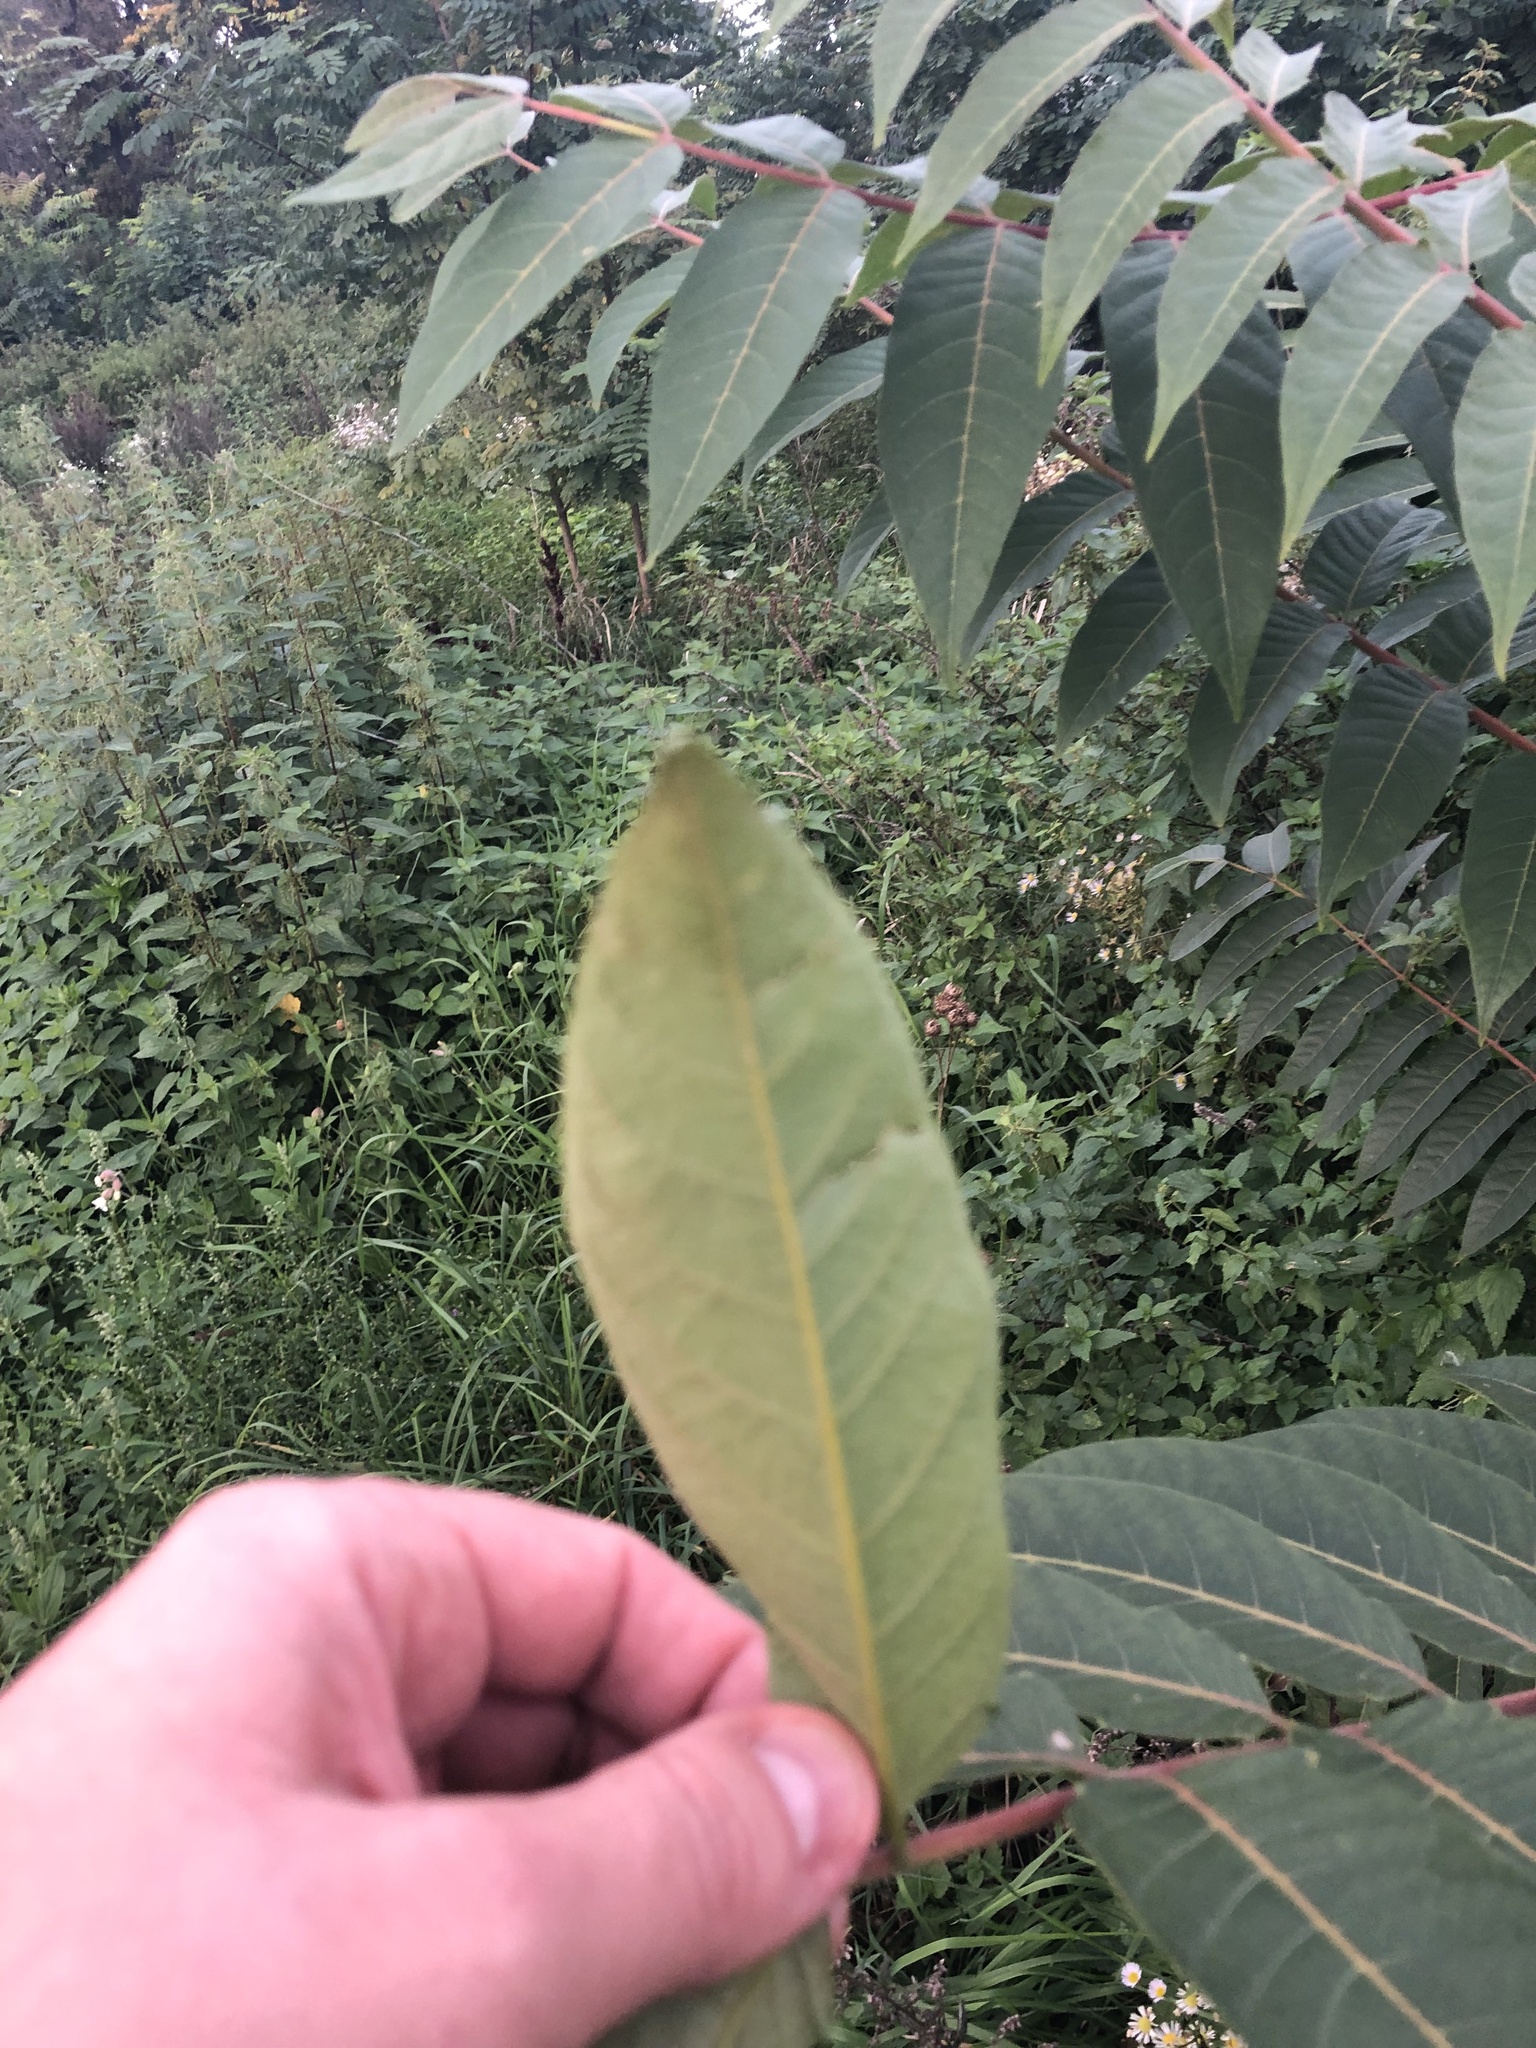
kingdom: Plantae
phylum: Tracheophyta
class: Magnoliopsida
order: Sapindales
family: Simaroubaceae
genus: Ailanthus
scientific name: Ailanthus altissima
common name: Tree-of-heaven
